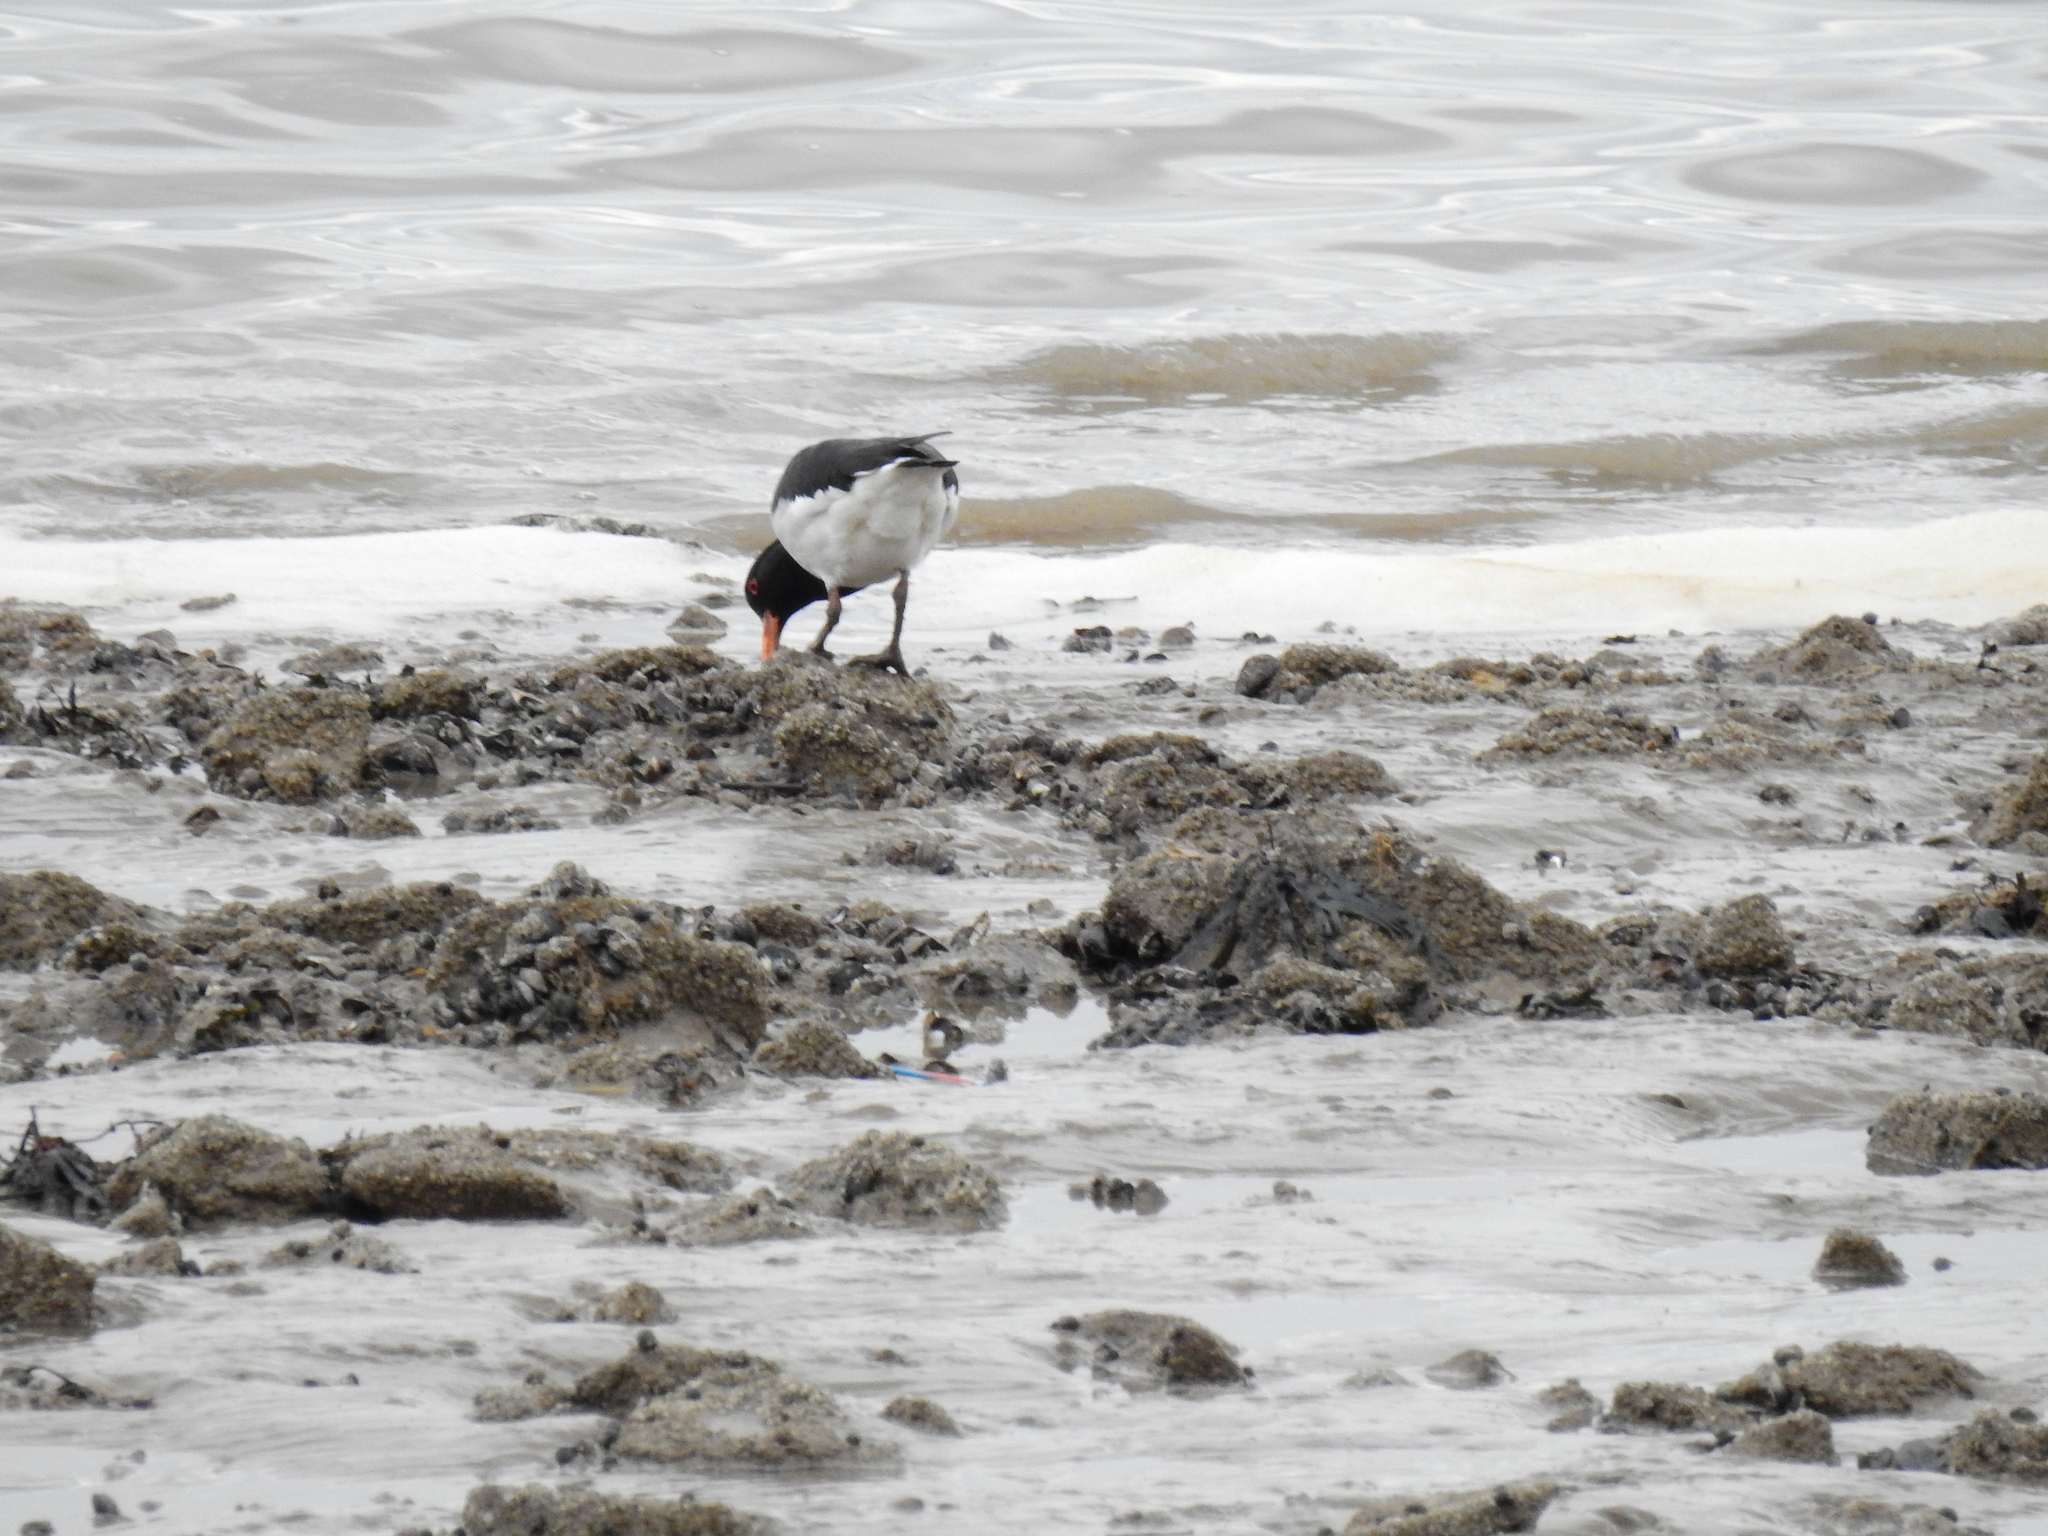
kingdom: Animalia
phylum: Chordata
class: Aves
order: Charadriiformes
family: Haematopodidae
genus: Haematopus
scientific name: Haematopus ostralegus
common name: Eurasian oystercatcher
